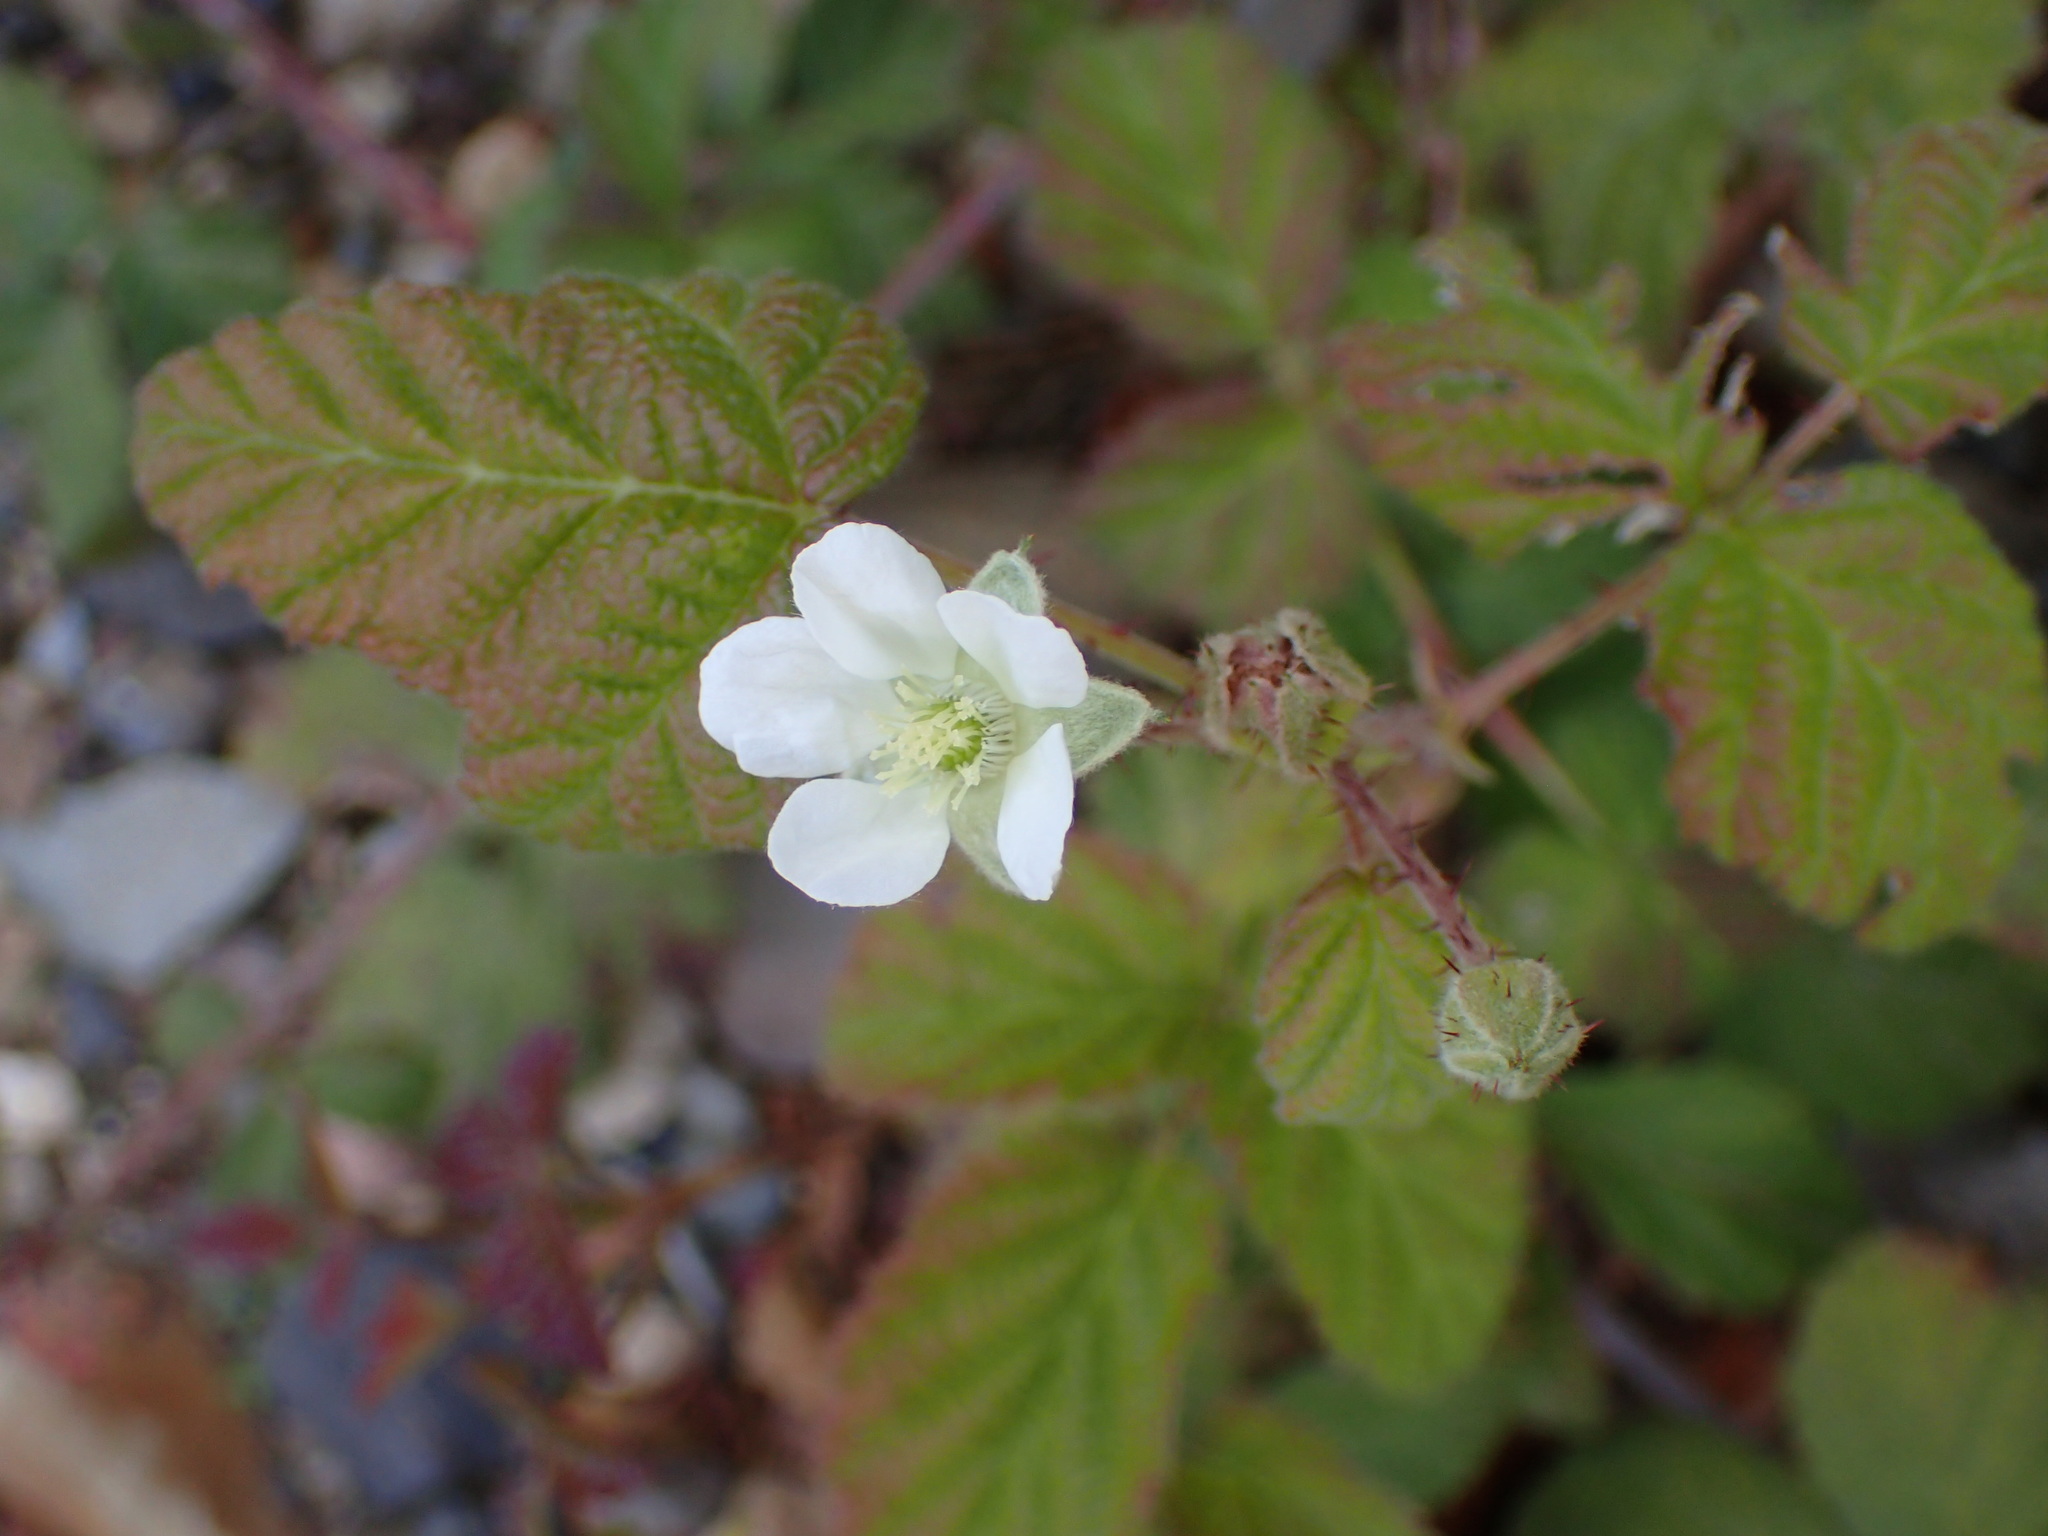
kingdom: Plantae
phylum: Tracheophyta
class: Magnoliopsida
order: Rosales
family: Rosaceae
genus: Rubus
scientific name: Rubus ursinus
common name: Pacific blackberry
